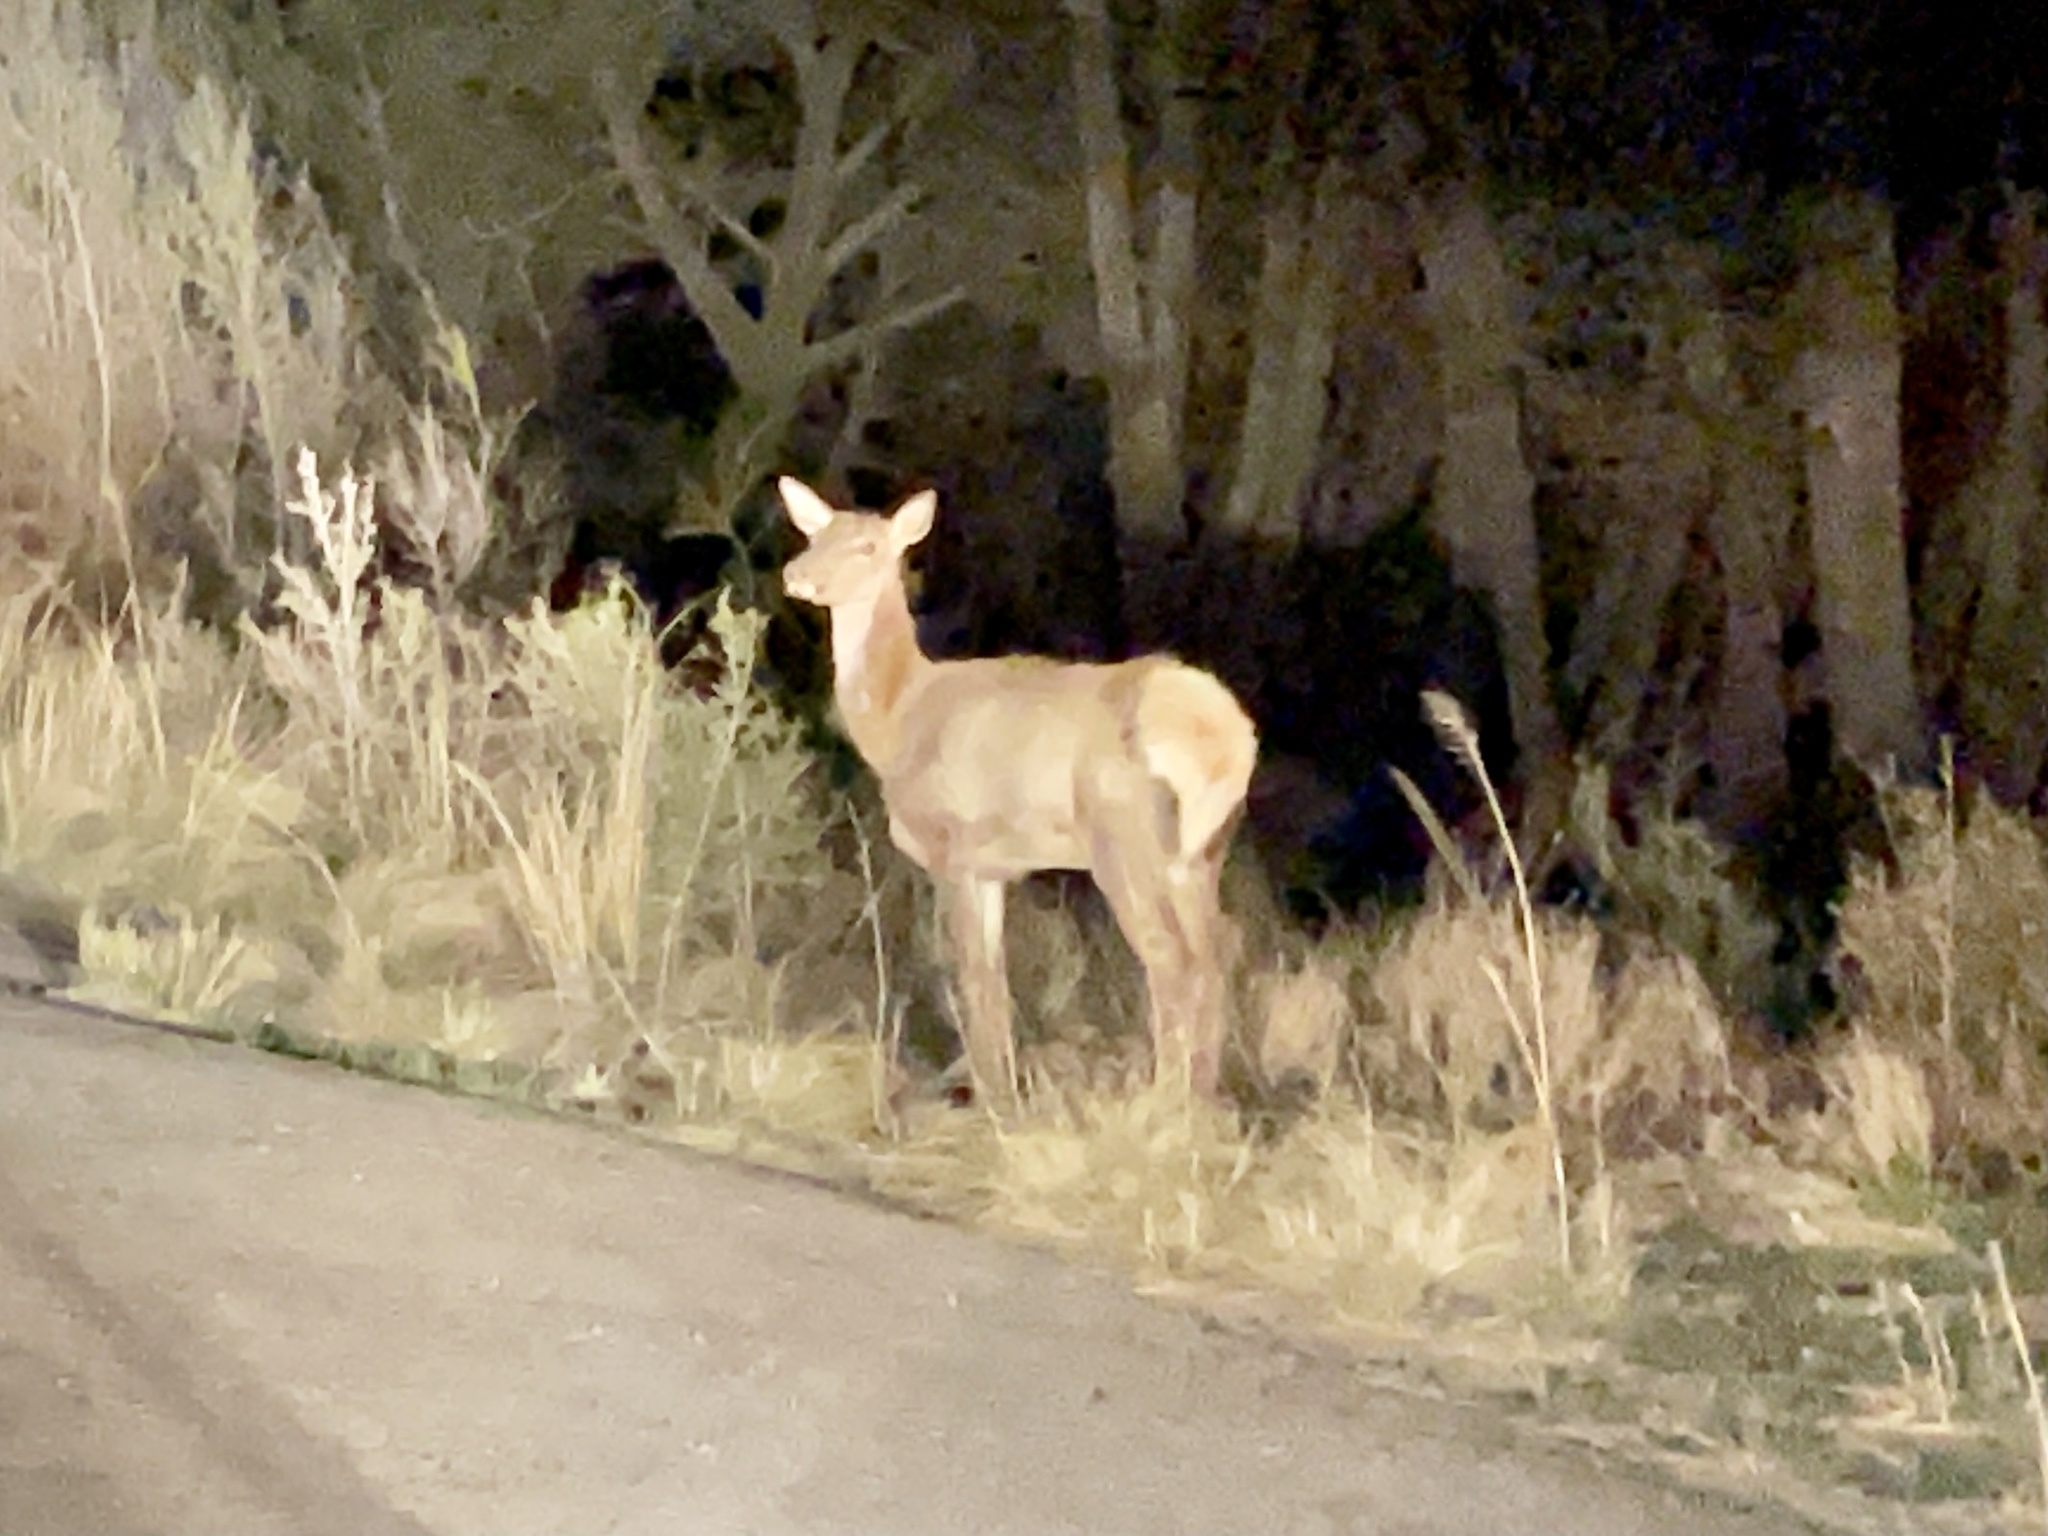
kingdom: Animalia
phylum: Chordata
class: Mammalia
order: Artiodactyla
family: Cervidae
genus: Cervus
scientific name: Cervus elaphus
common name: Red deer
